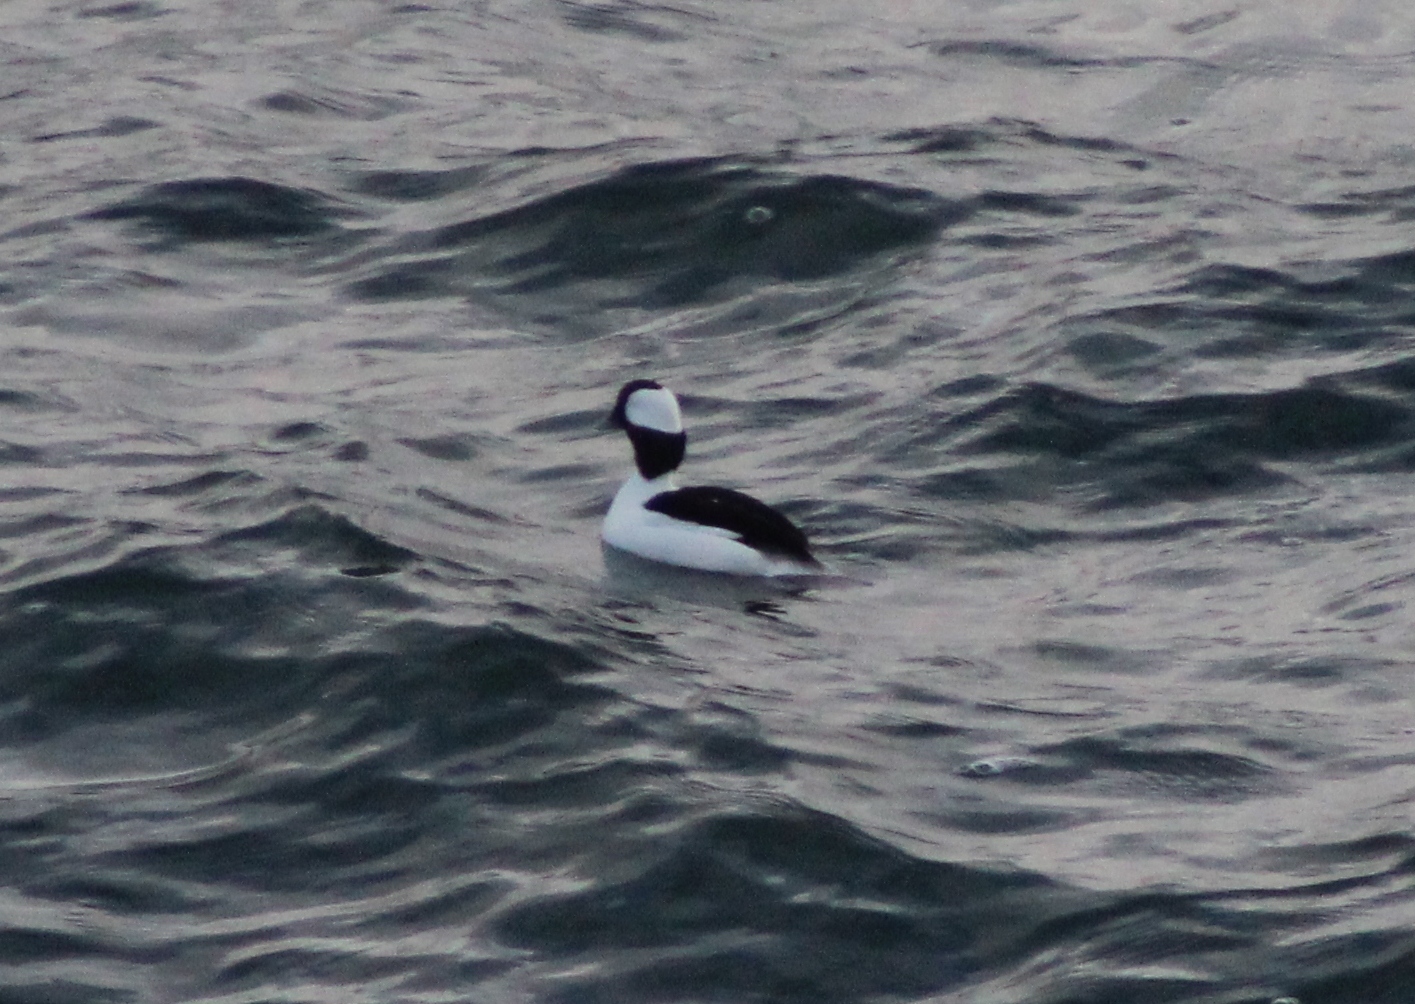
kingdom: Animalia
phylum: Chordata
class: Aves
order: Anseriformes
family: Anatidae
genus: Bucephala
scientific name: Bucephala albeola
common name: Bufflehead
